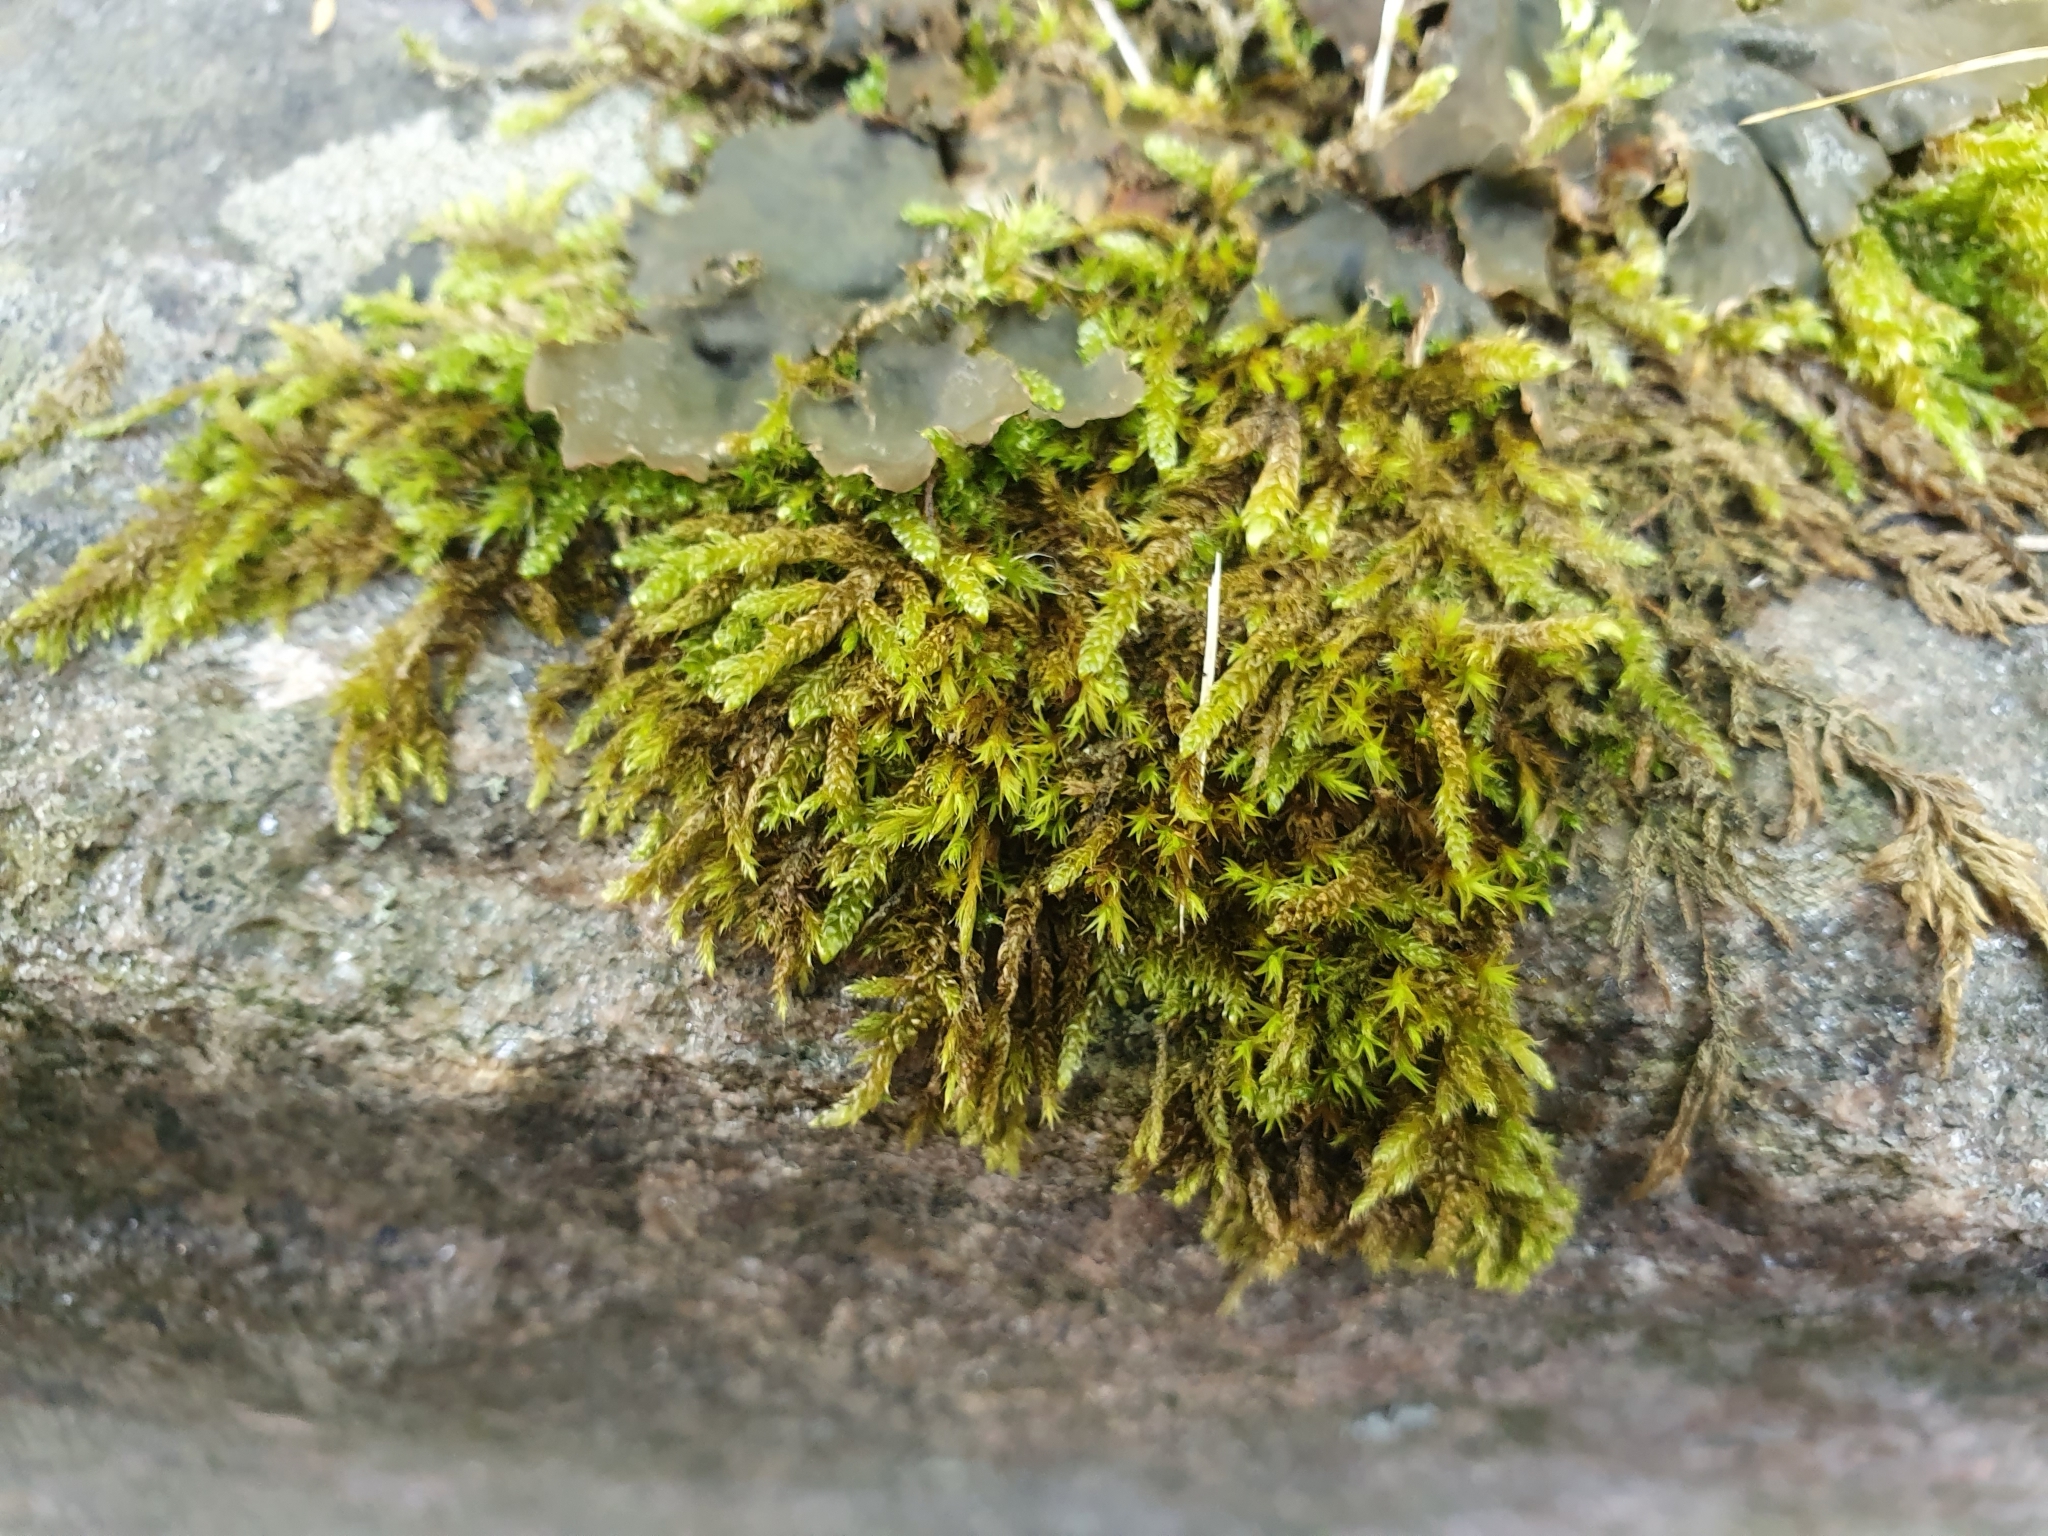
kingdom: Plantae
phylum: Bryophyta
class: Bryopsida
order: Hypnales
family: Hypnaceae
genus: Hypnum
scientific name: Hypnum cupressiforme
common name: Cypress-leaved plait-moss
